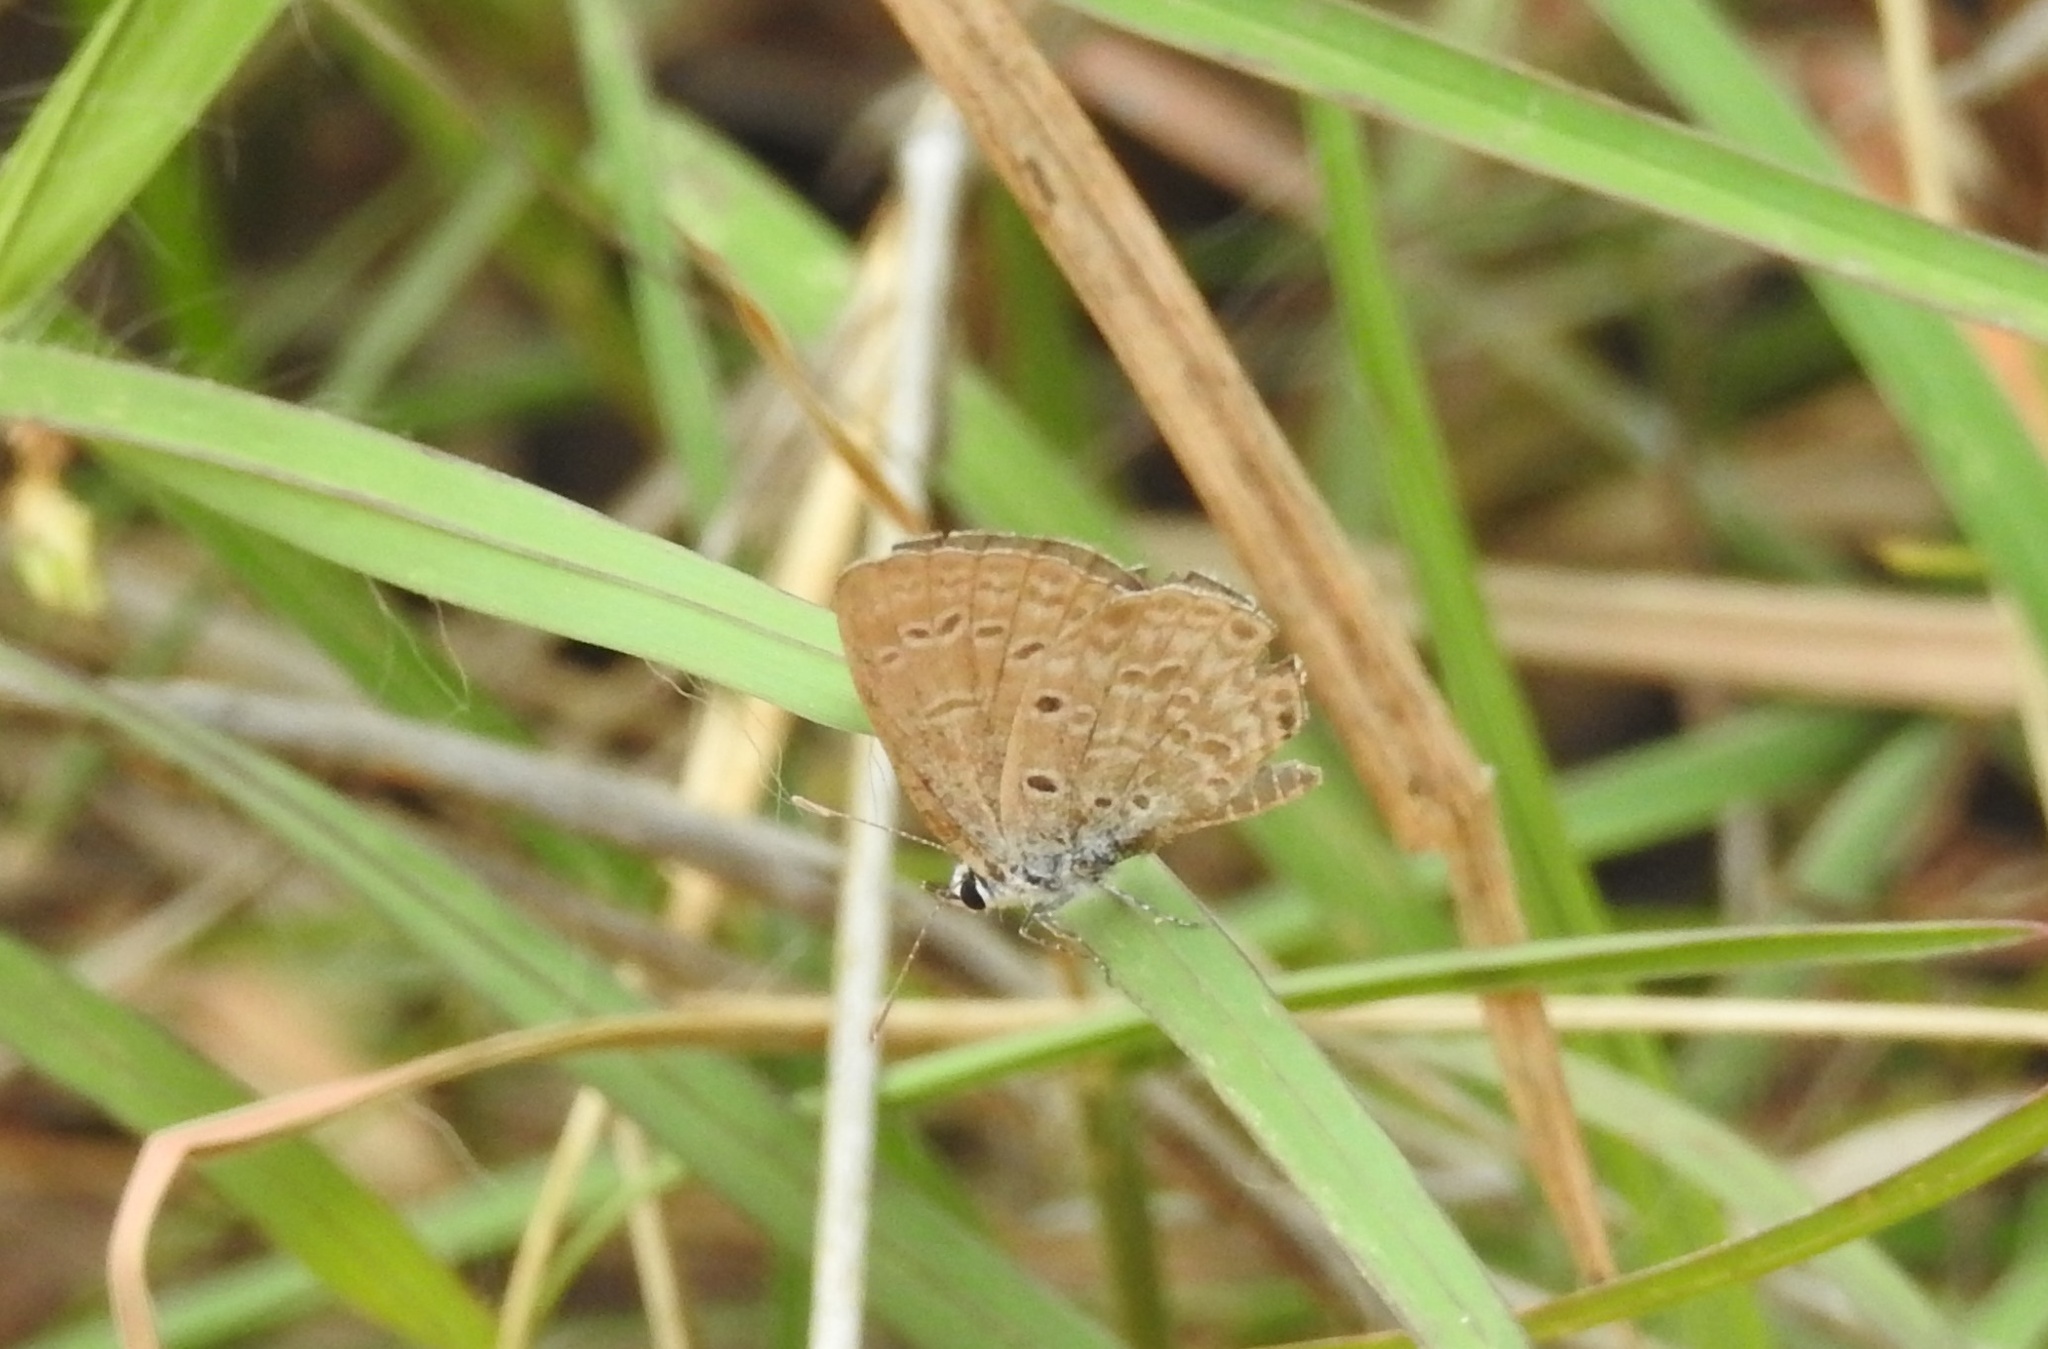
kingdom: Animalia
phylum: Arthropoda
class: Insecta
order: Lepidoptera
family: Lycaenidae
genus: Chilades
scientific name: Chilades laius
